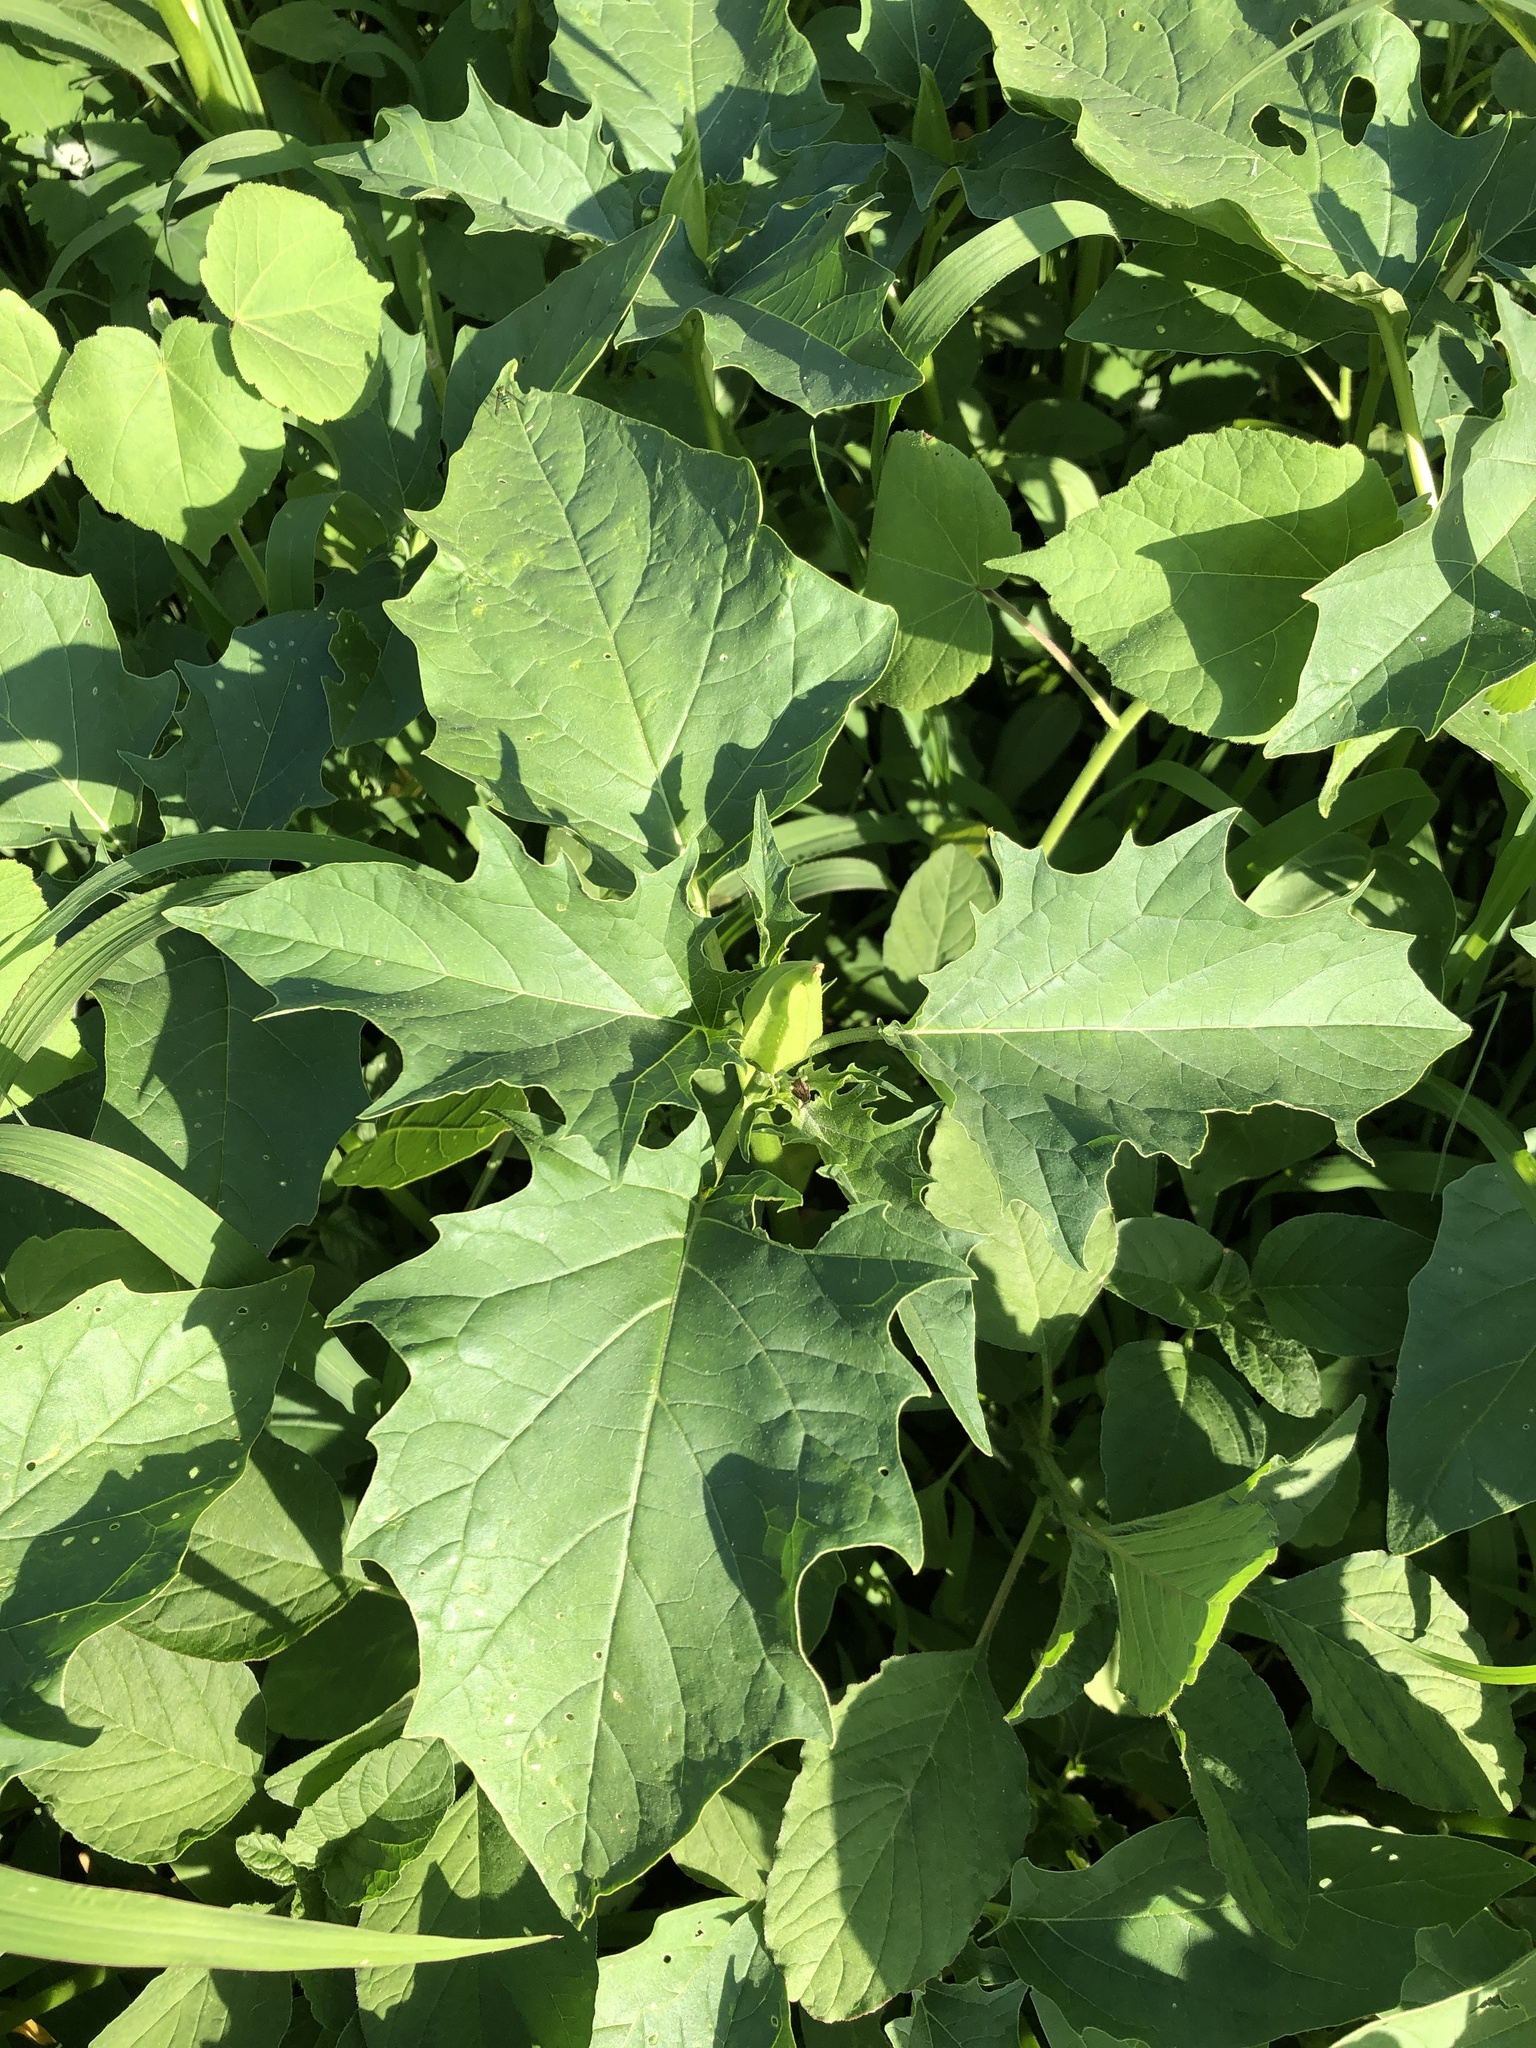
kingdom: Plantae
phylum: Tracheophyta
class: Magnoliopsida
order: Solanales
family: Solanaceae
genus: Datura
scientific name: Datura stramonium
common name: Thorn-apple
